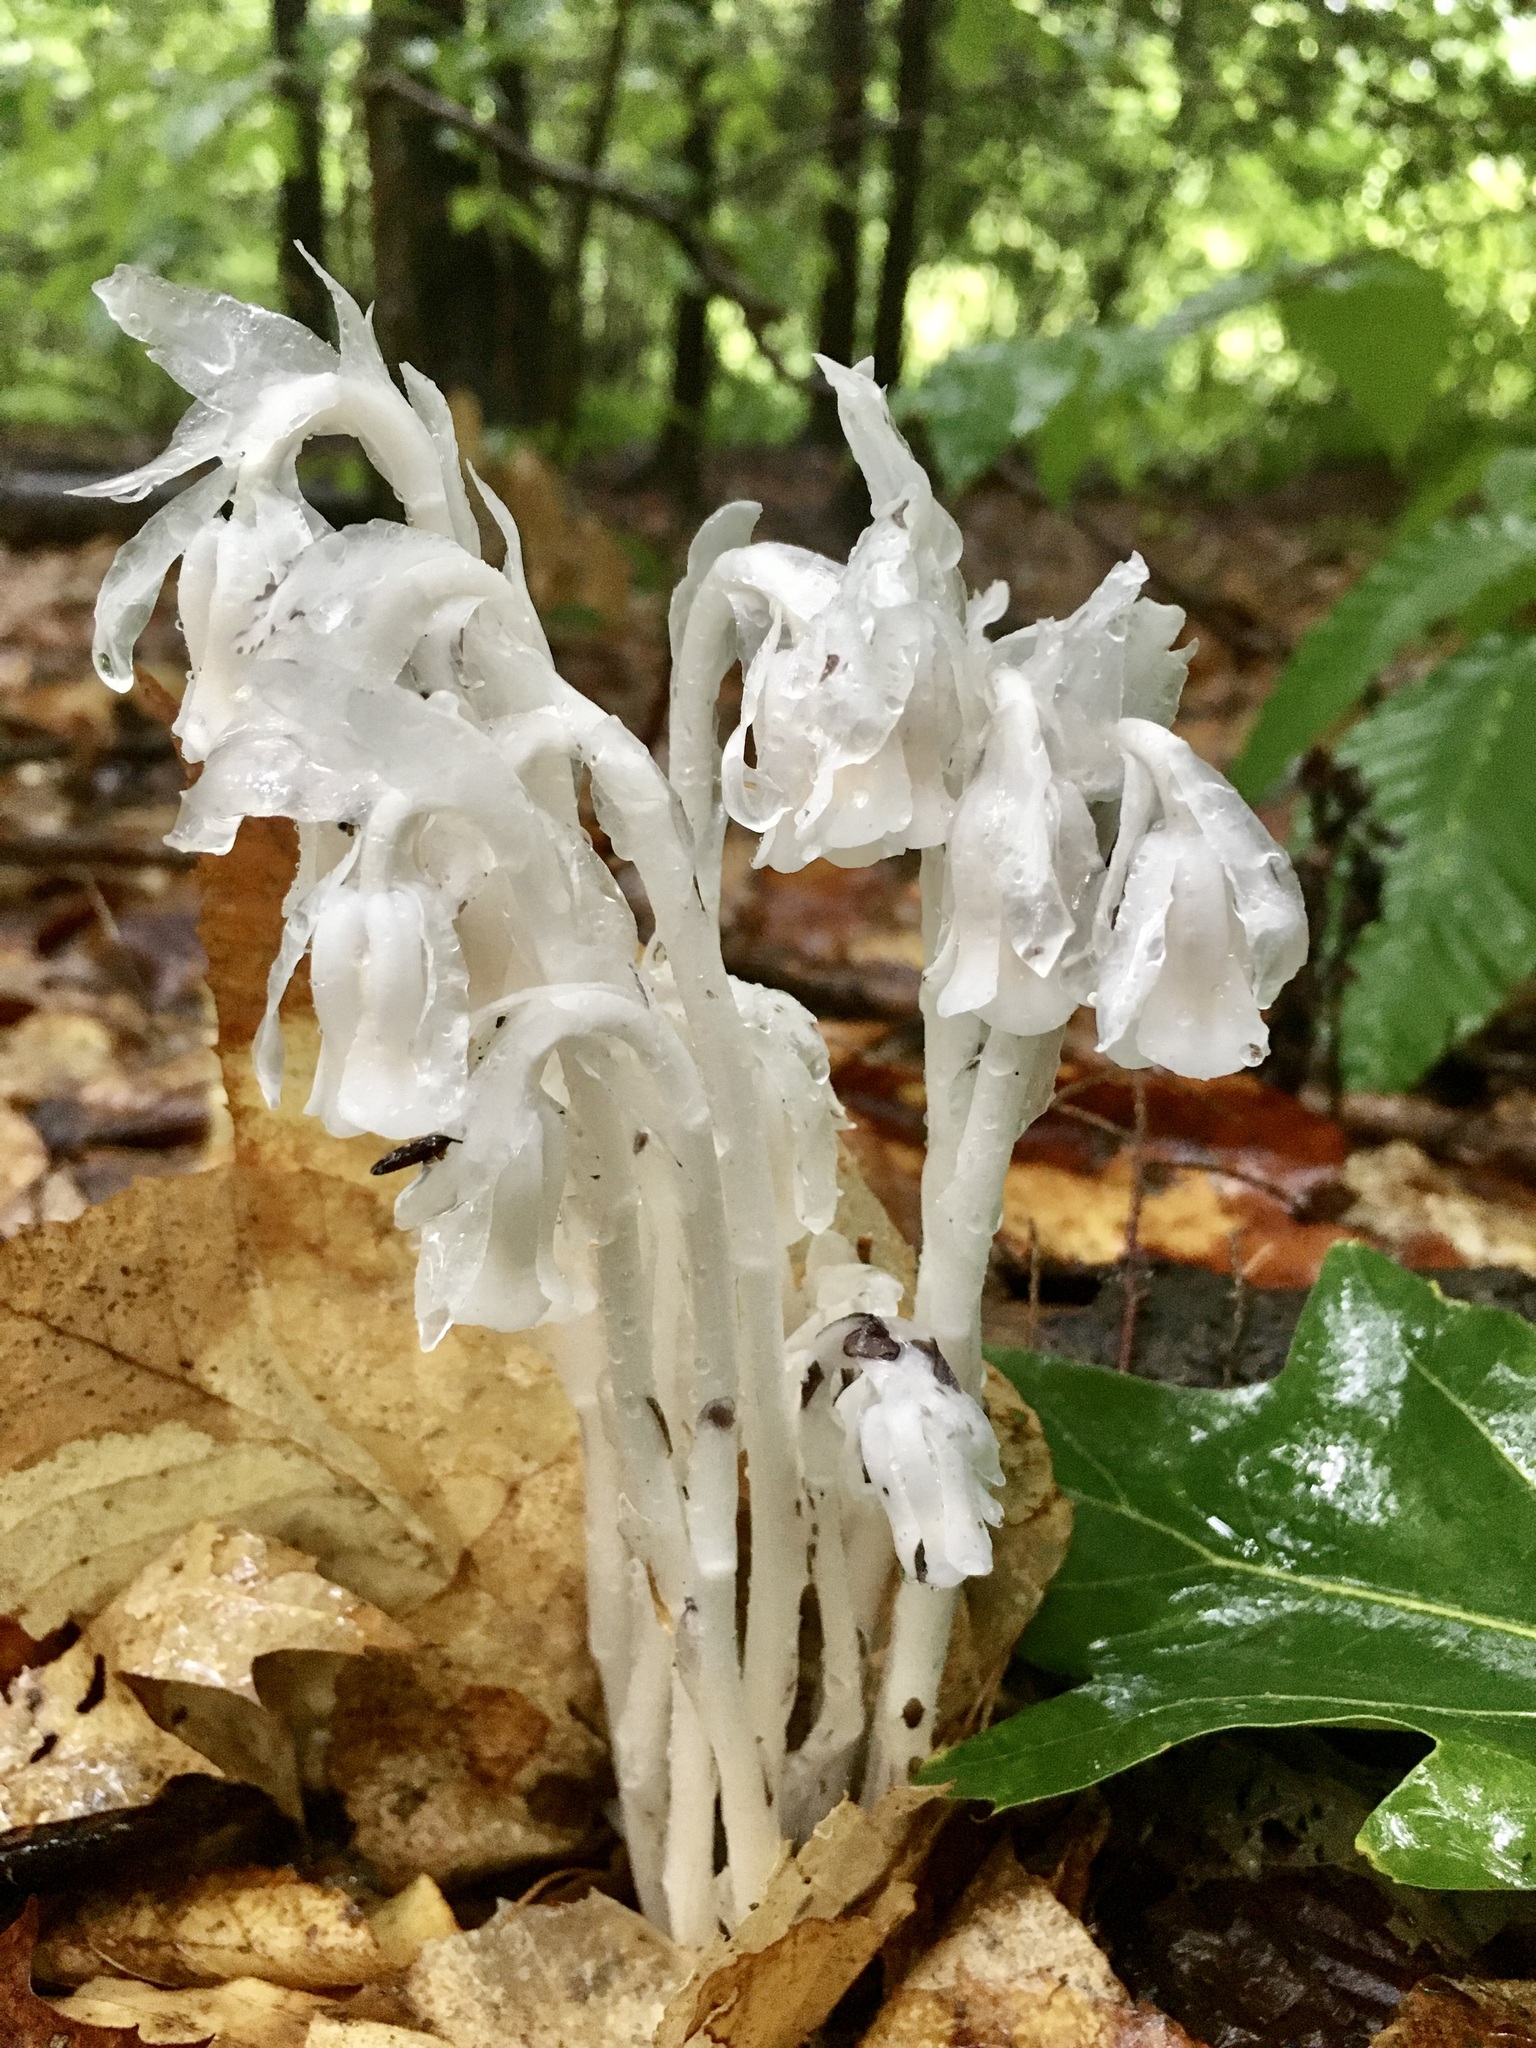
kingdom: Plantae
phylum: Tracheophyta
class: Magnoliopsida
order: Ericales
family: Ericaceae
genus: Monotropa
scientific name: Monotropa uniflora
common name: Convulsion root
